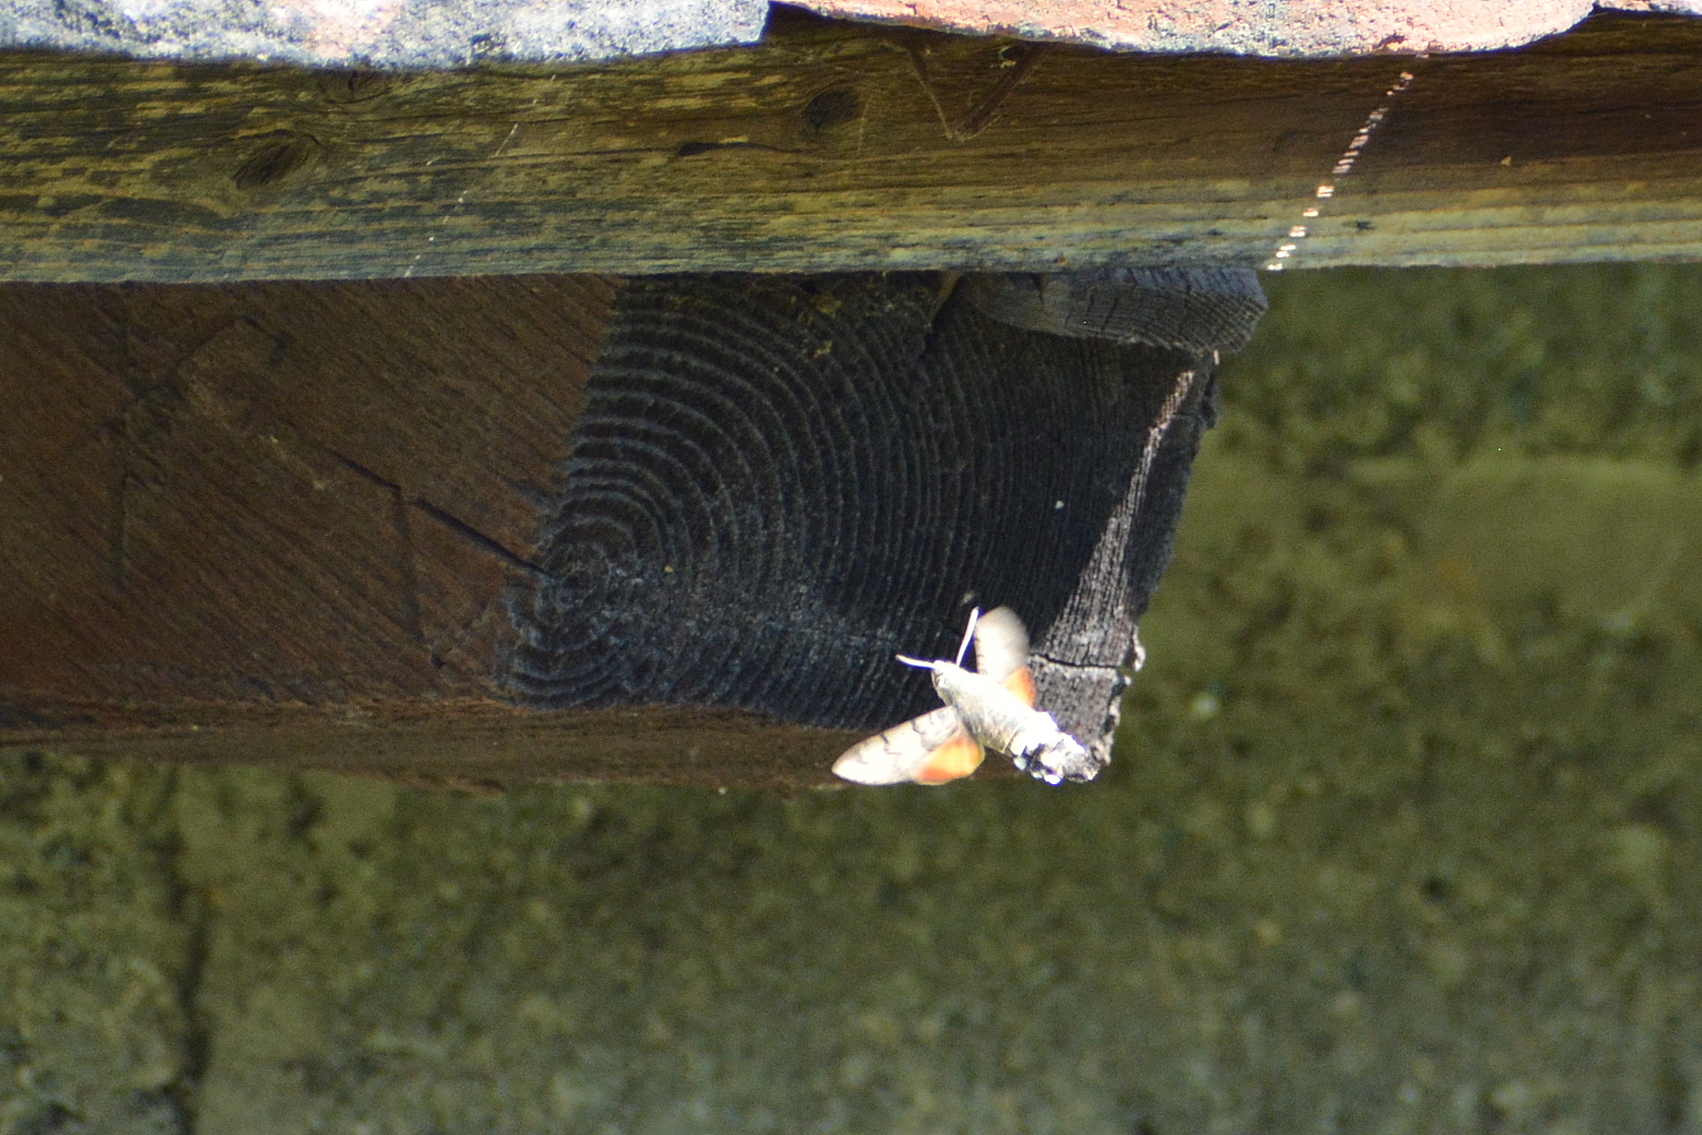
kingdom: Animalia
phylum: Arthropoda
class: Insecta
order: Lepidoptera
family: Sphingidae
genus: Macroglossum
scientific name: Macroglossum stellatarum
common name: Humming-bird hawk-moth
